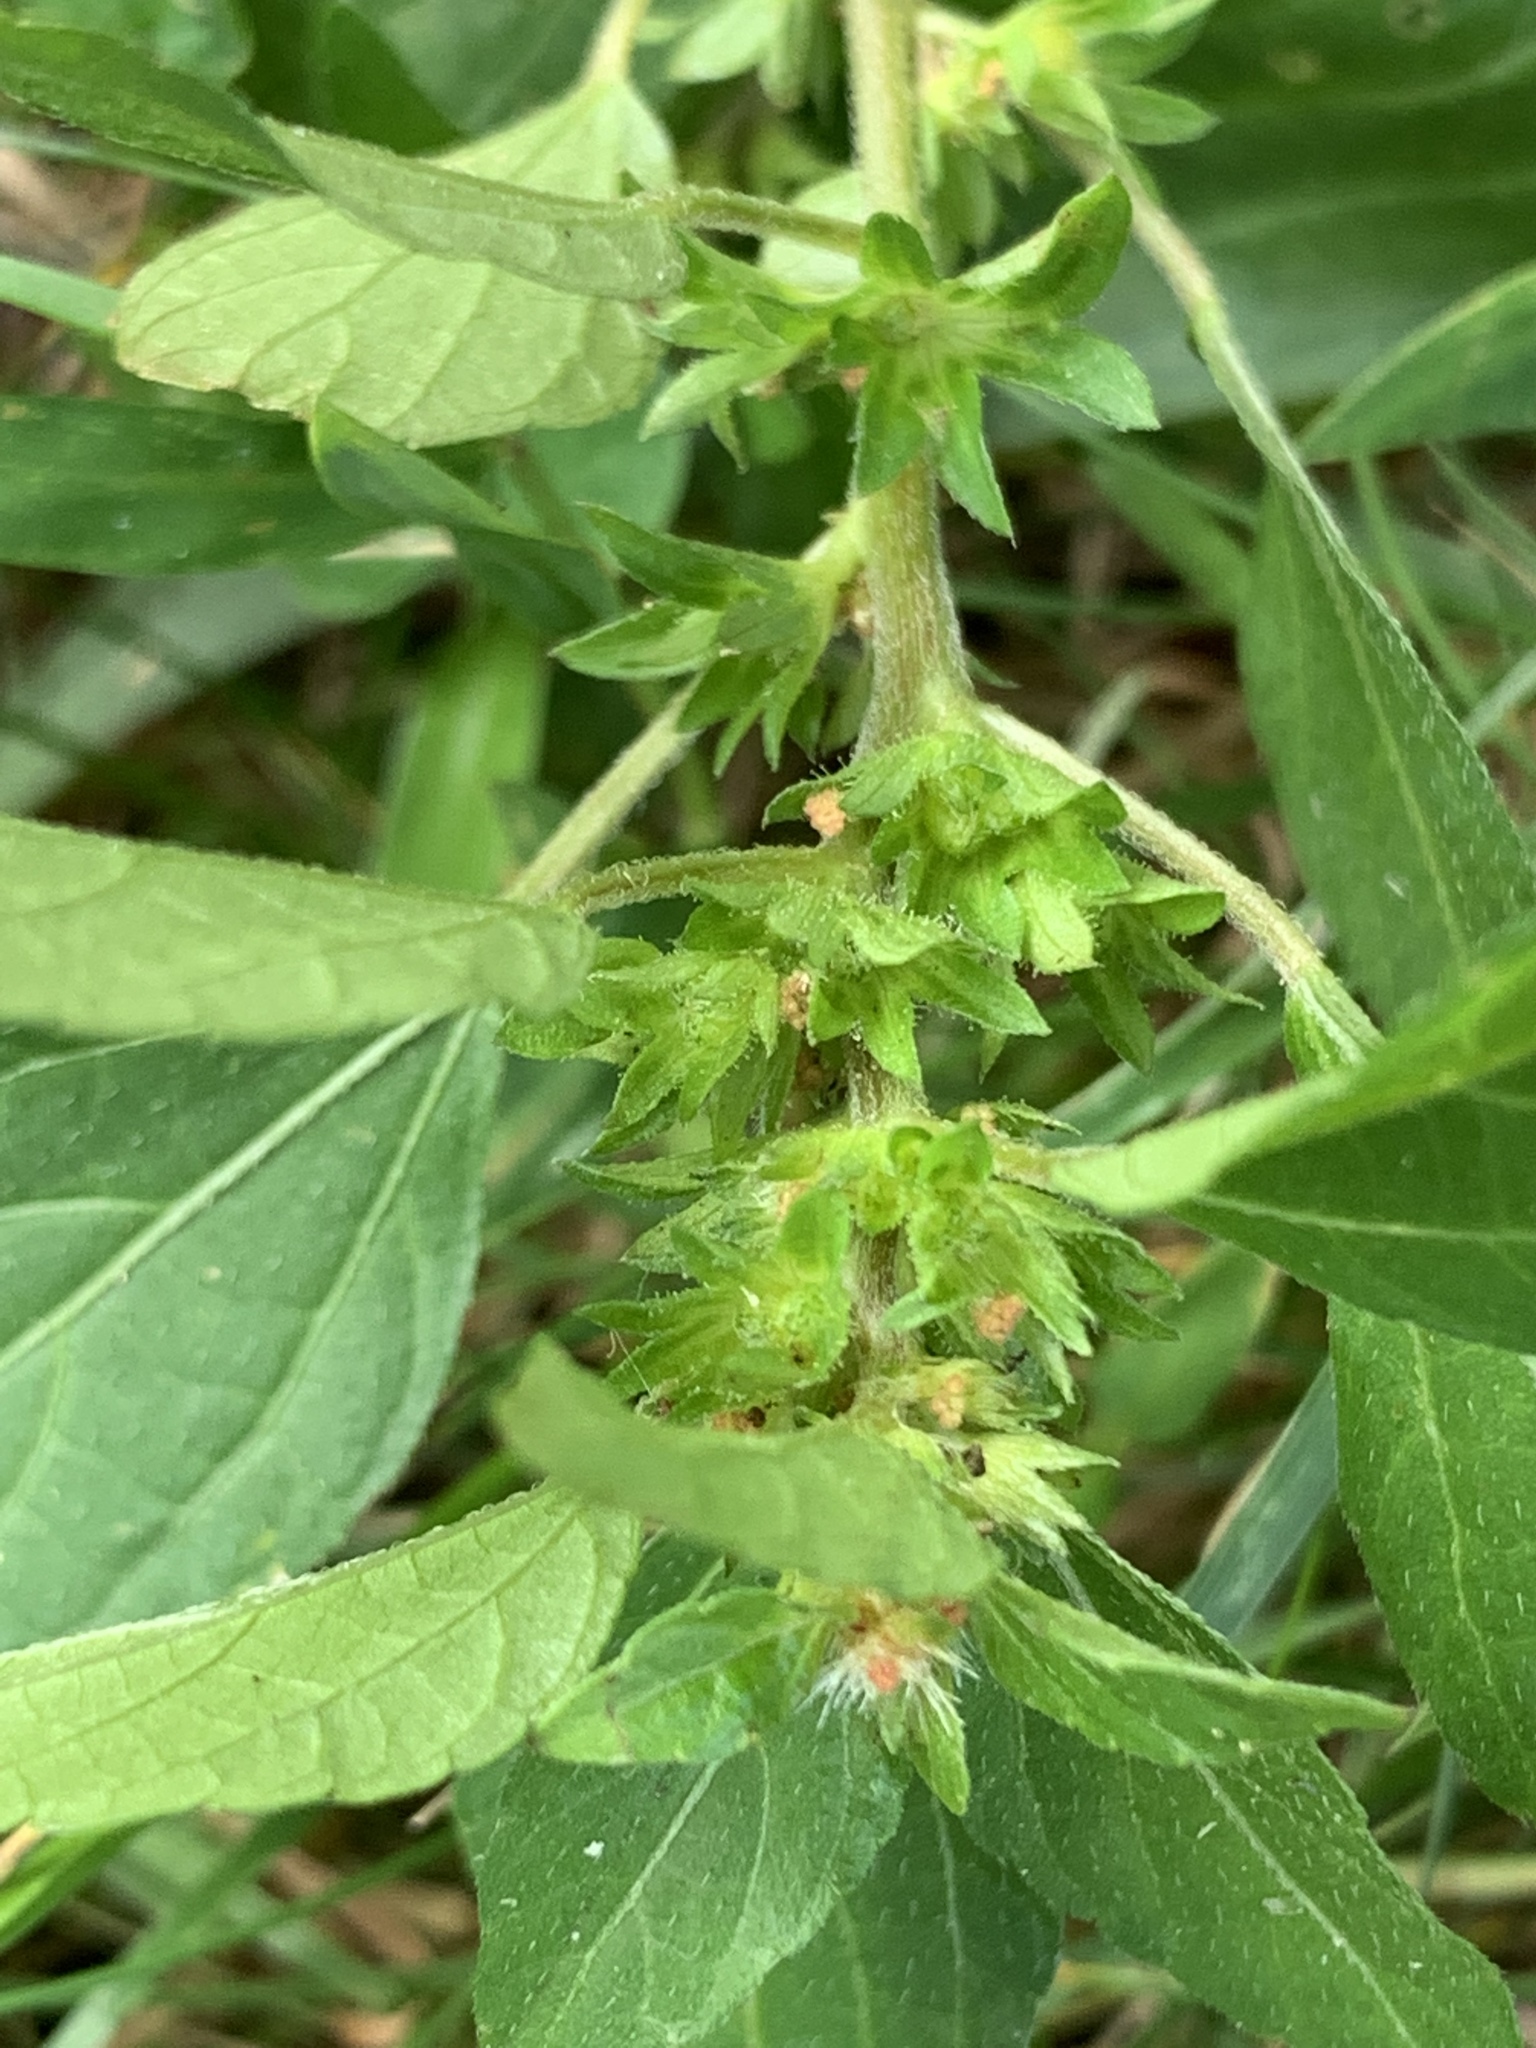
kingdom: Plantae
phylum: Tracheophyta
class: Magnoliopsida
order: Malpighiales
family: Euphorbiaceae
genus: Acalypha
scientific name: Acalypha rhomboidea
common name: Rhombic copperleaf
